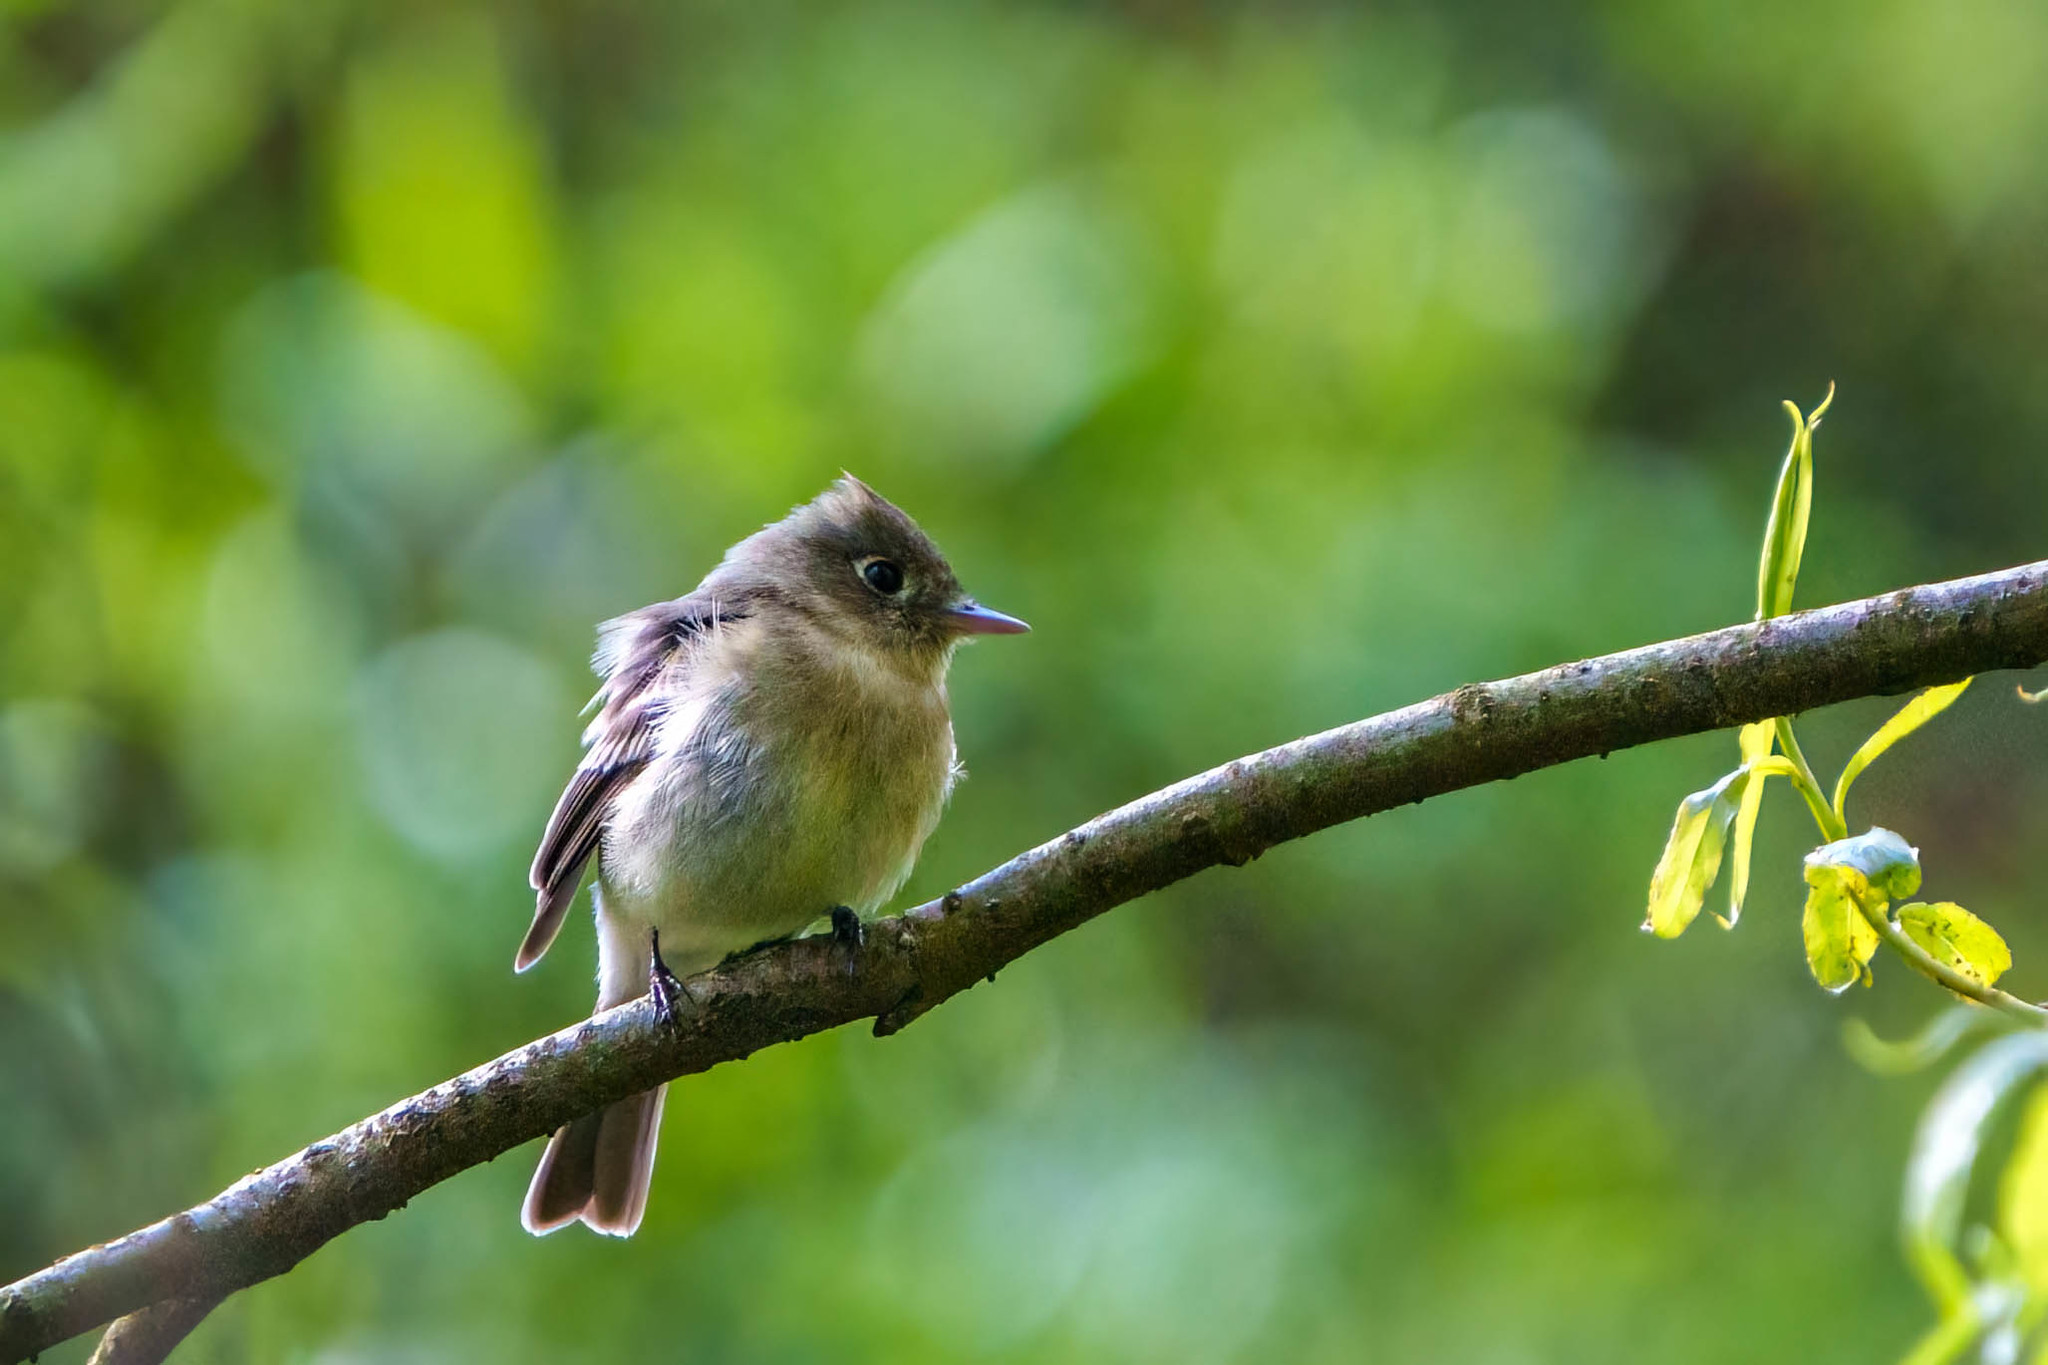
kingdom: Animalia
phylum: Chordata
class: Aves
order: Passeriformes
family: Tyrannidae
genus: Empidonax
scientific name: Empidonax difficilis
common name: Pacific-slope flycatcher
